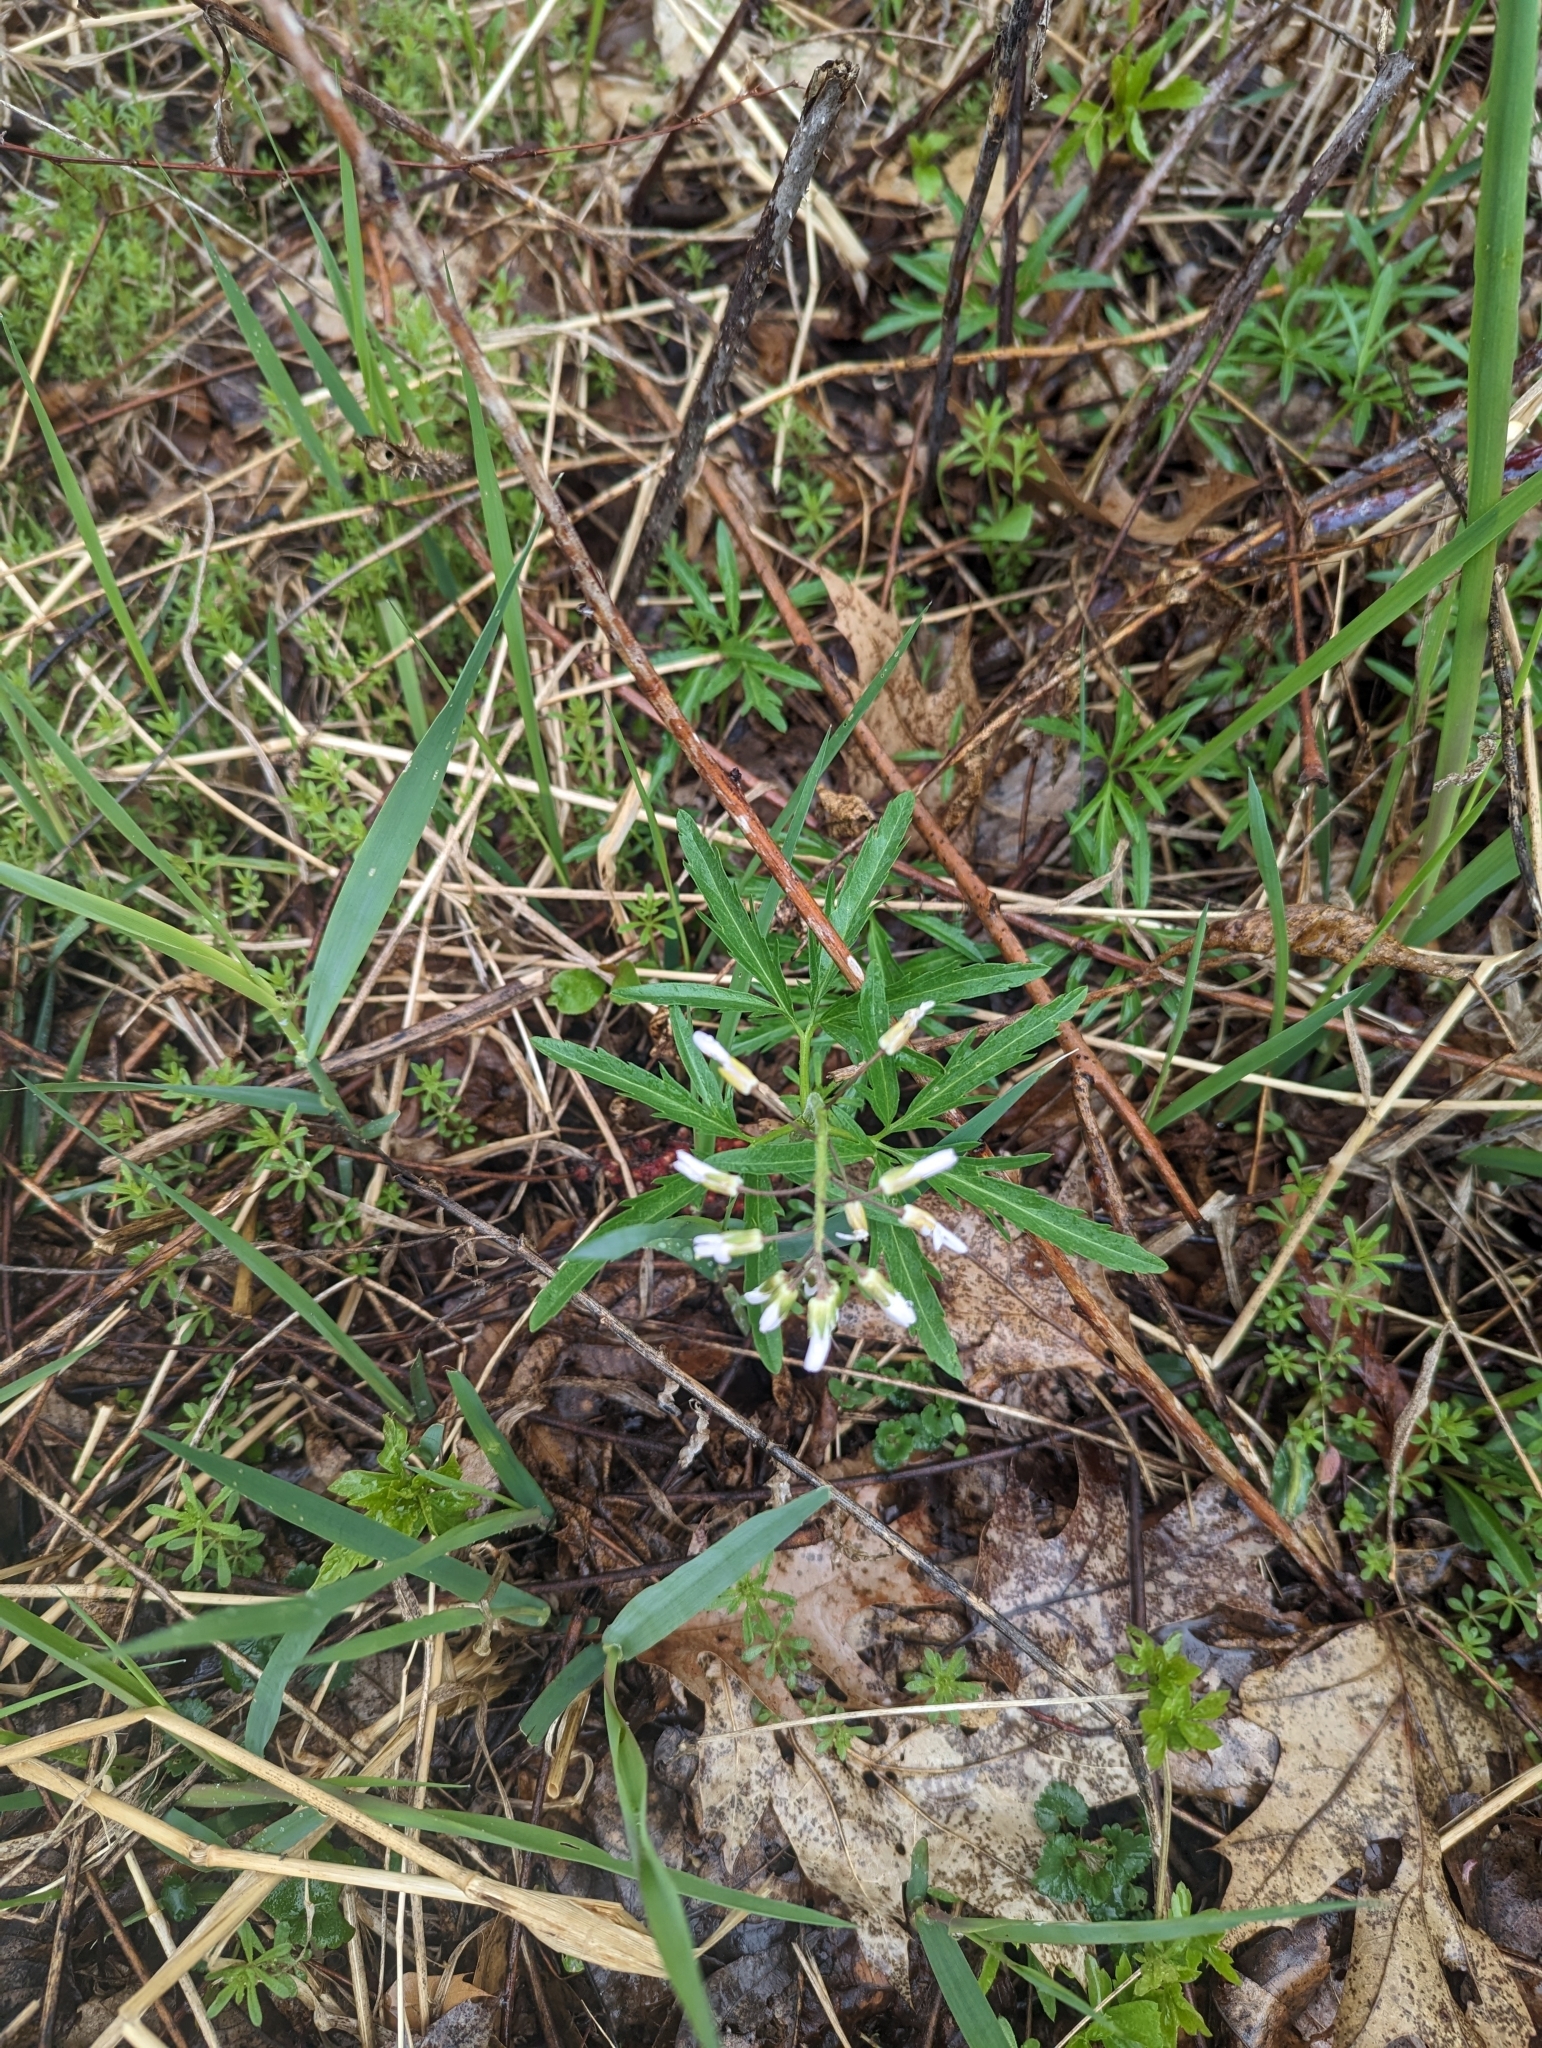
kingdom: Plantae
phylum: Tracheophyta
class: Magnoliopsida
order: Brassicales
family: Brassicaceae
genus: Cardamine
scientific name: Cardamine concatenata
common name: Cut-leaf toothcup
